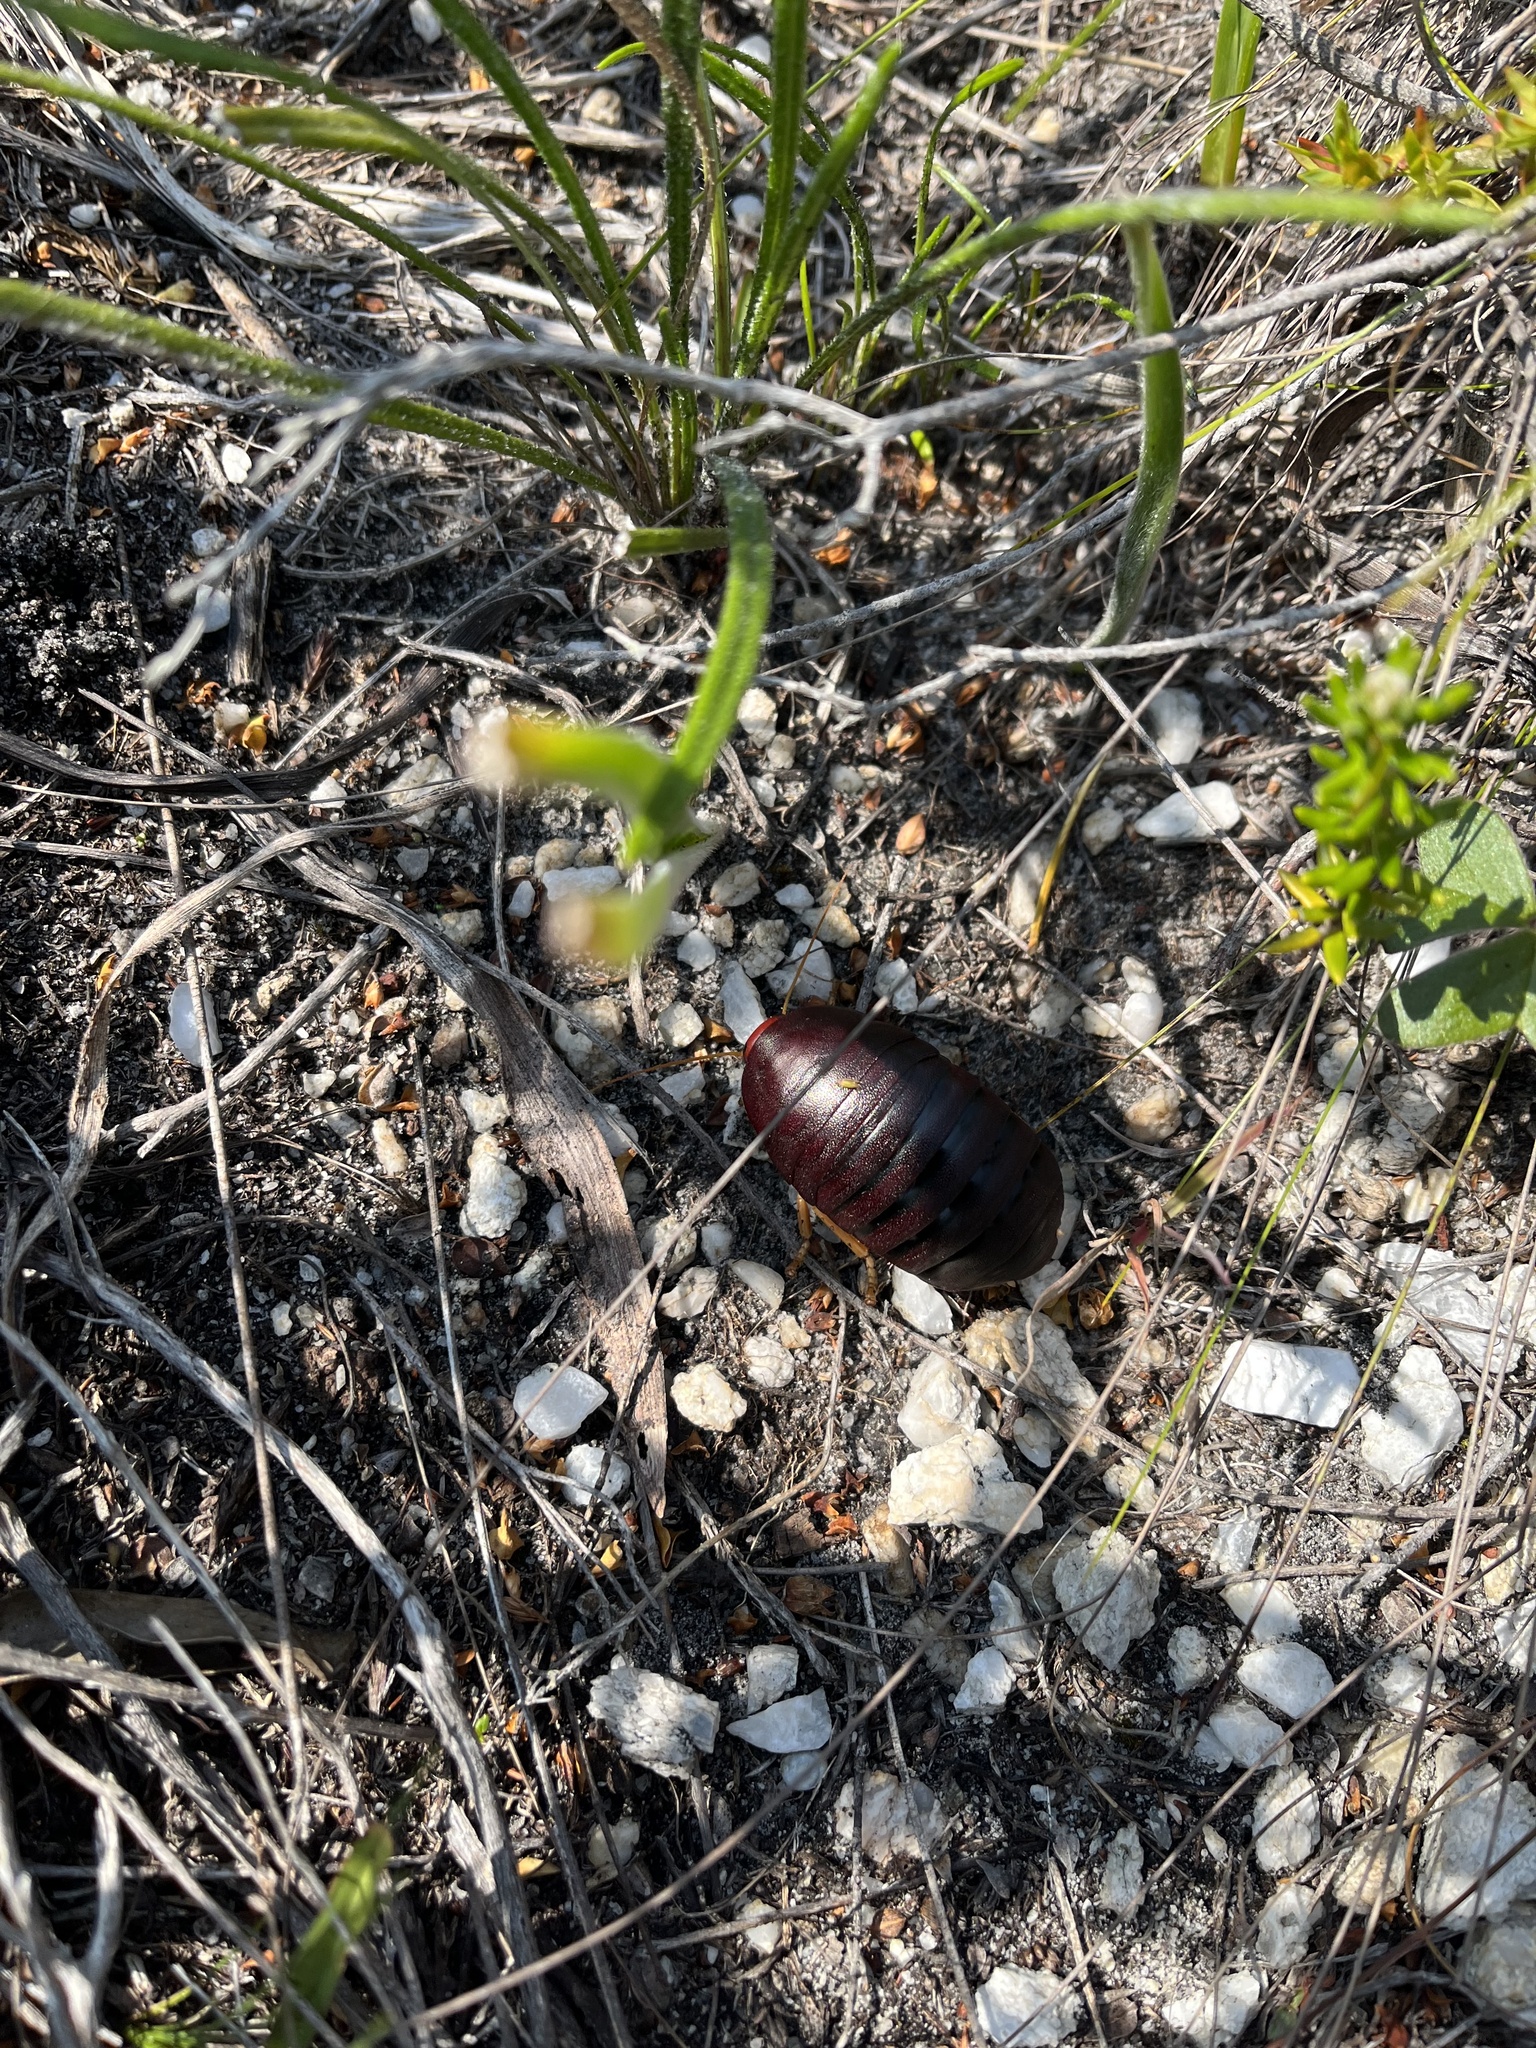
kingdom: Animalia
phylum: Arthropoda
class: Insecta
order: Blattodea
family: Blaberidae
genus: Aptera
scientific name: Aptera fusca
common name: Cape mountain cockroach
